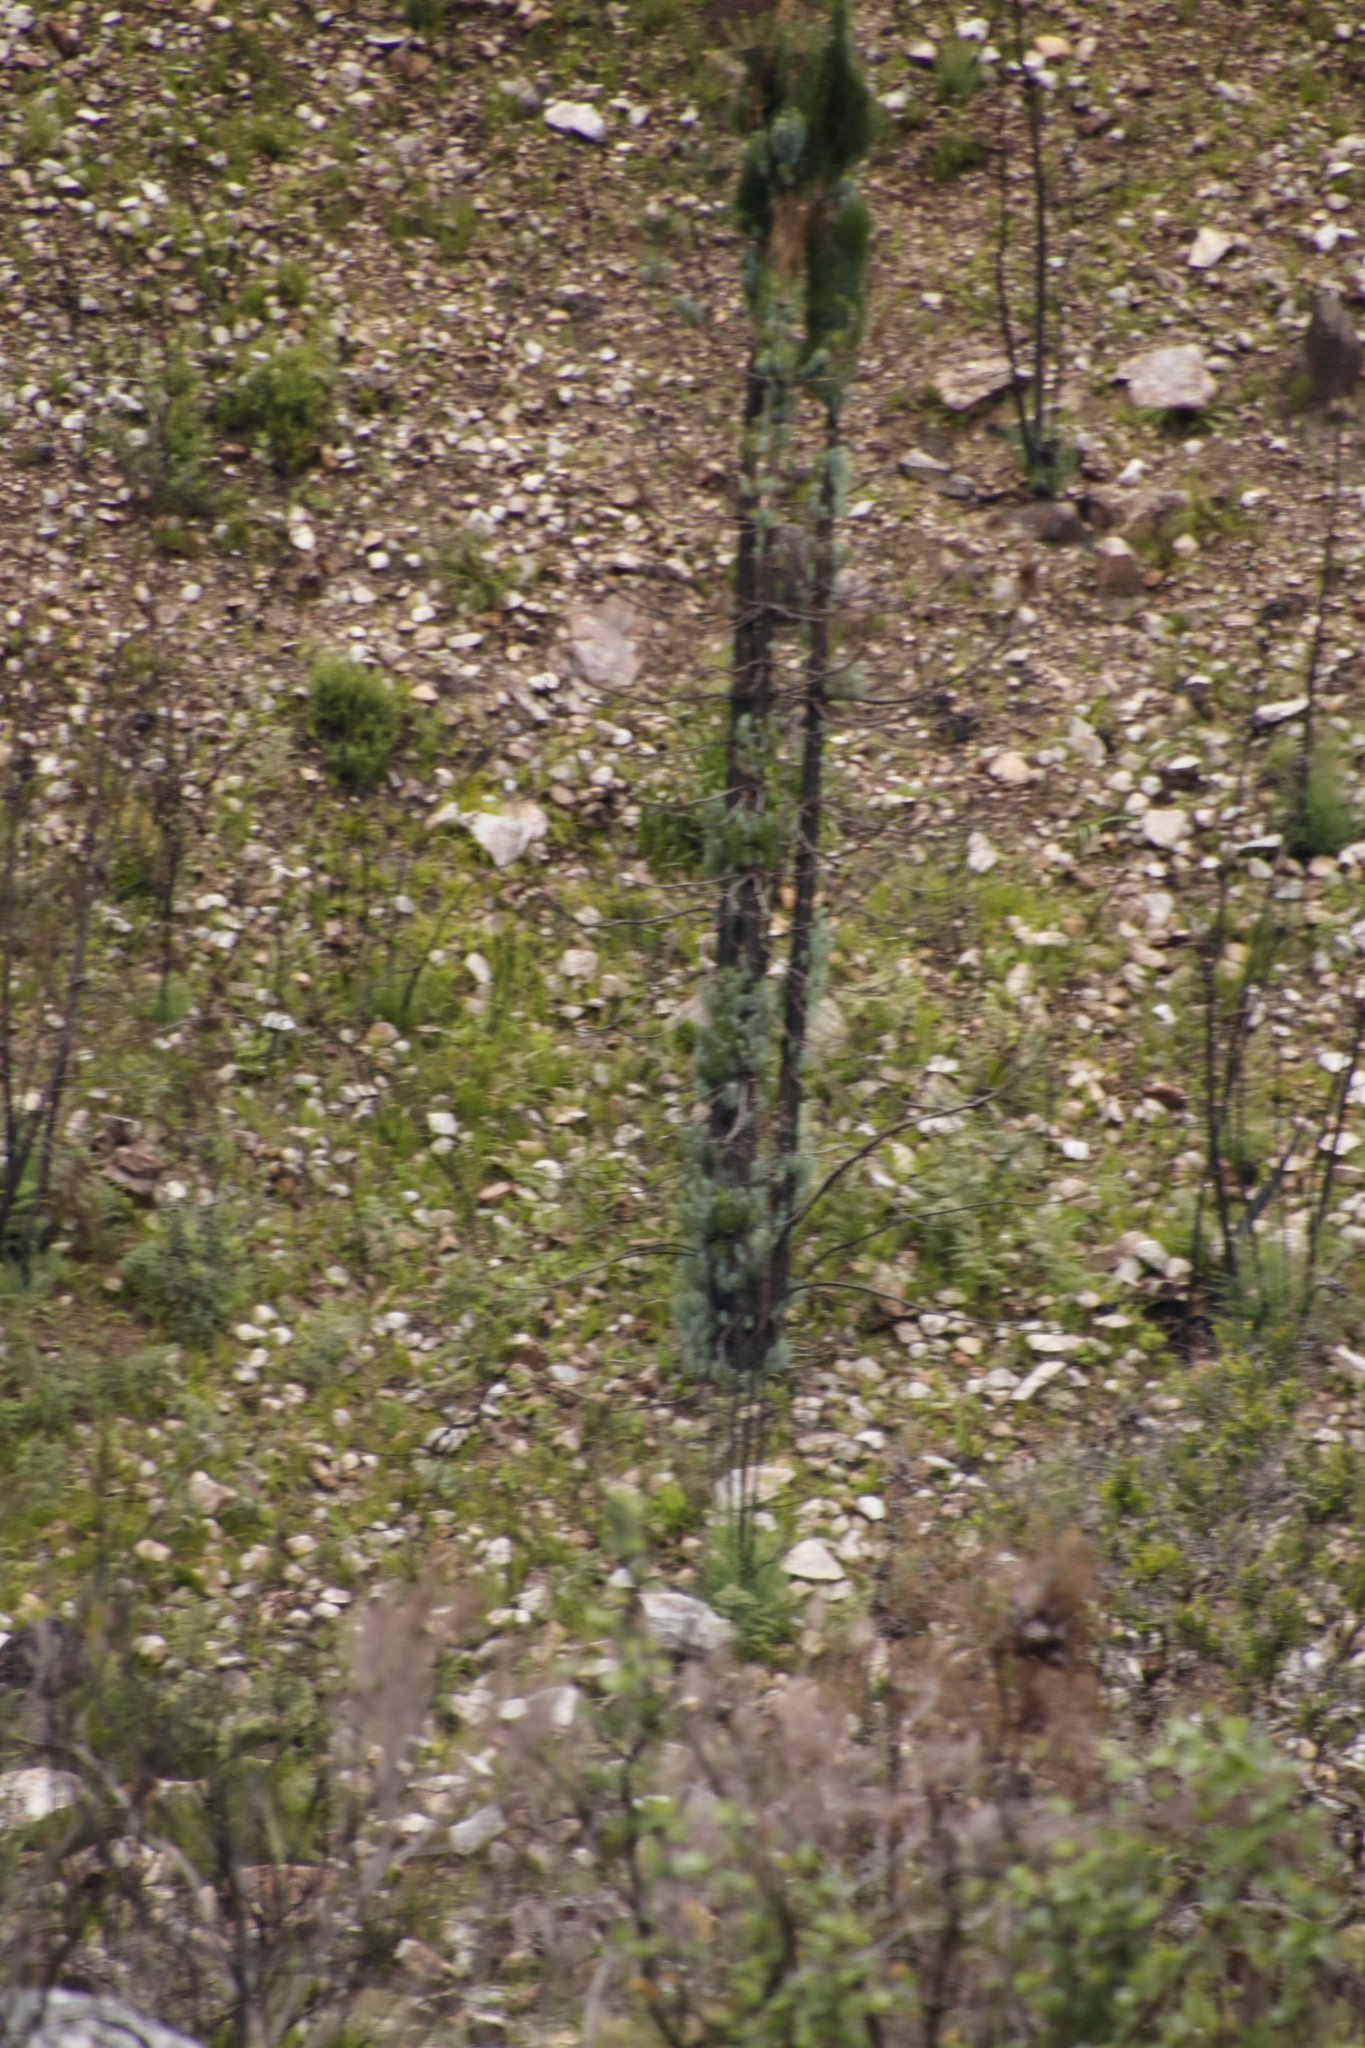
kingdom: Plantae
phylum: Tracheophyta
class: Pinopsida
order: Pinales
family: Pinaceae
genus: Pinus
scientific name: Pinus canariensis
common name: Canary islands pine
